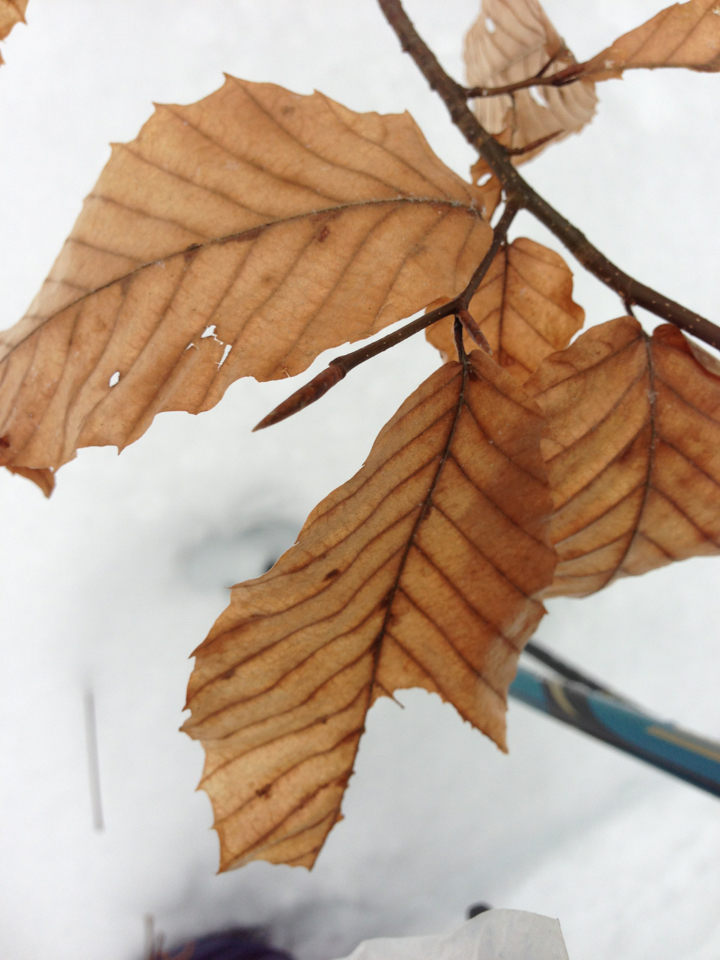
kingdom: Plantae
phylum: Tracheophyta
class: Magnoliopsida
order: Fagales
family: Fagaceae
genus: Fagus
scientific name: Fagus grandifolia
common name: American beech
